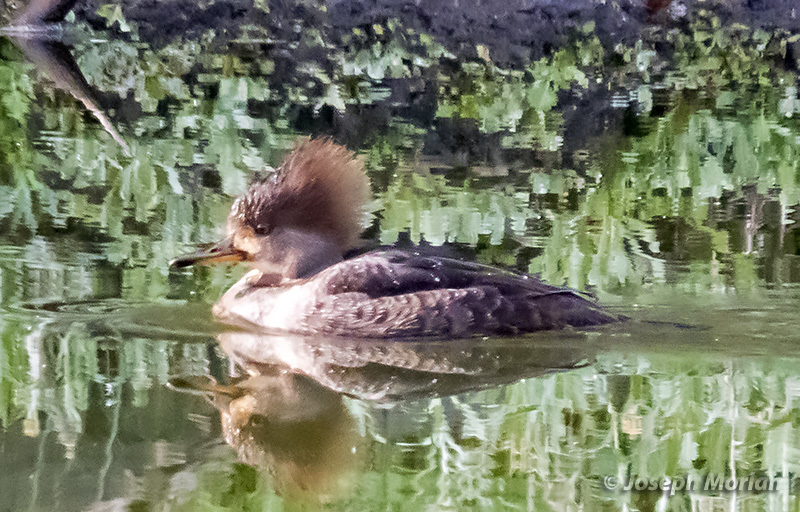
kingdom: Animalia
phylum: Chordata
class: Aves
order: Anseriformes
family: Anatidae
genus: Lophodytes
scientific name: Lophodytes cucullatus
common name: Hooded merganser
